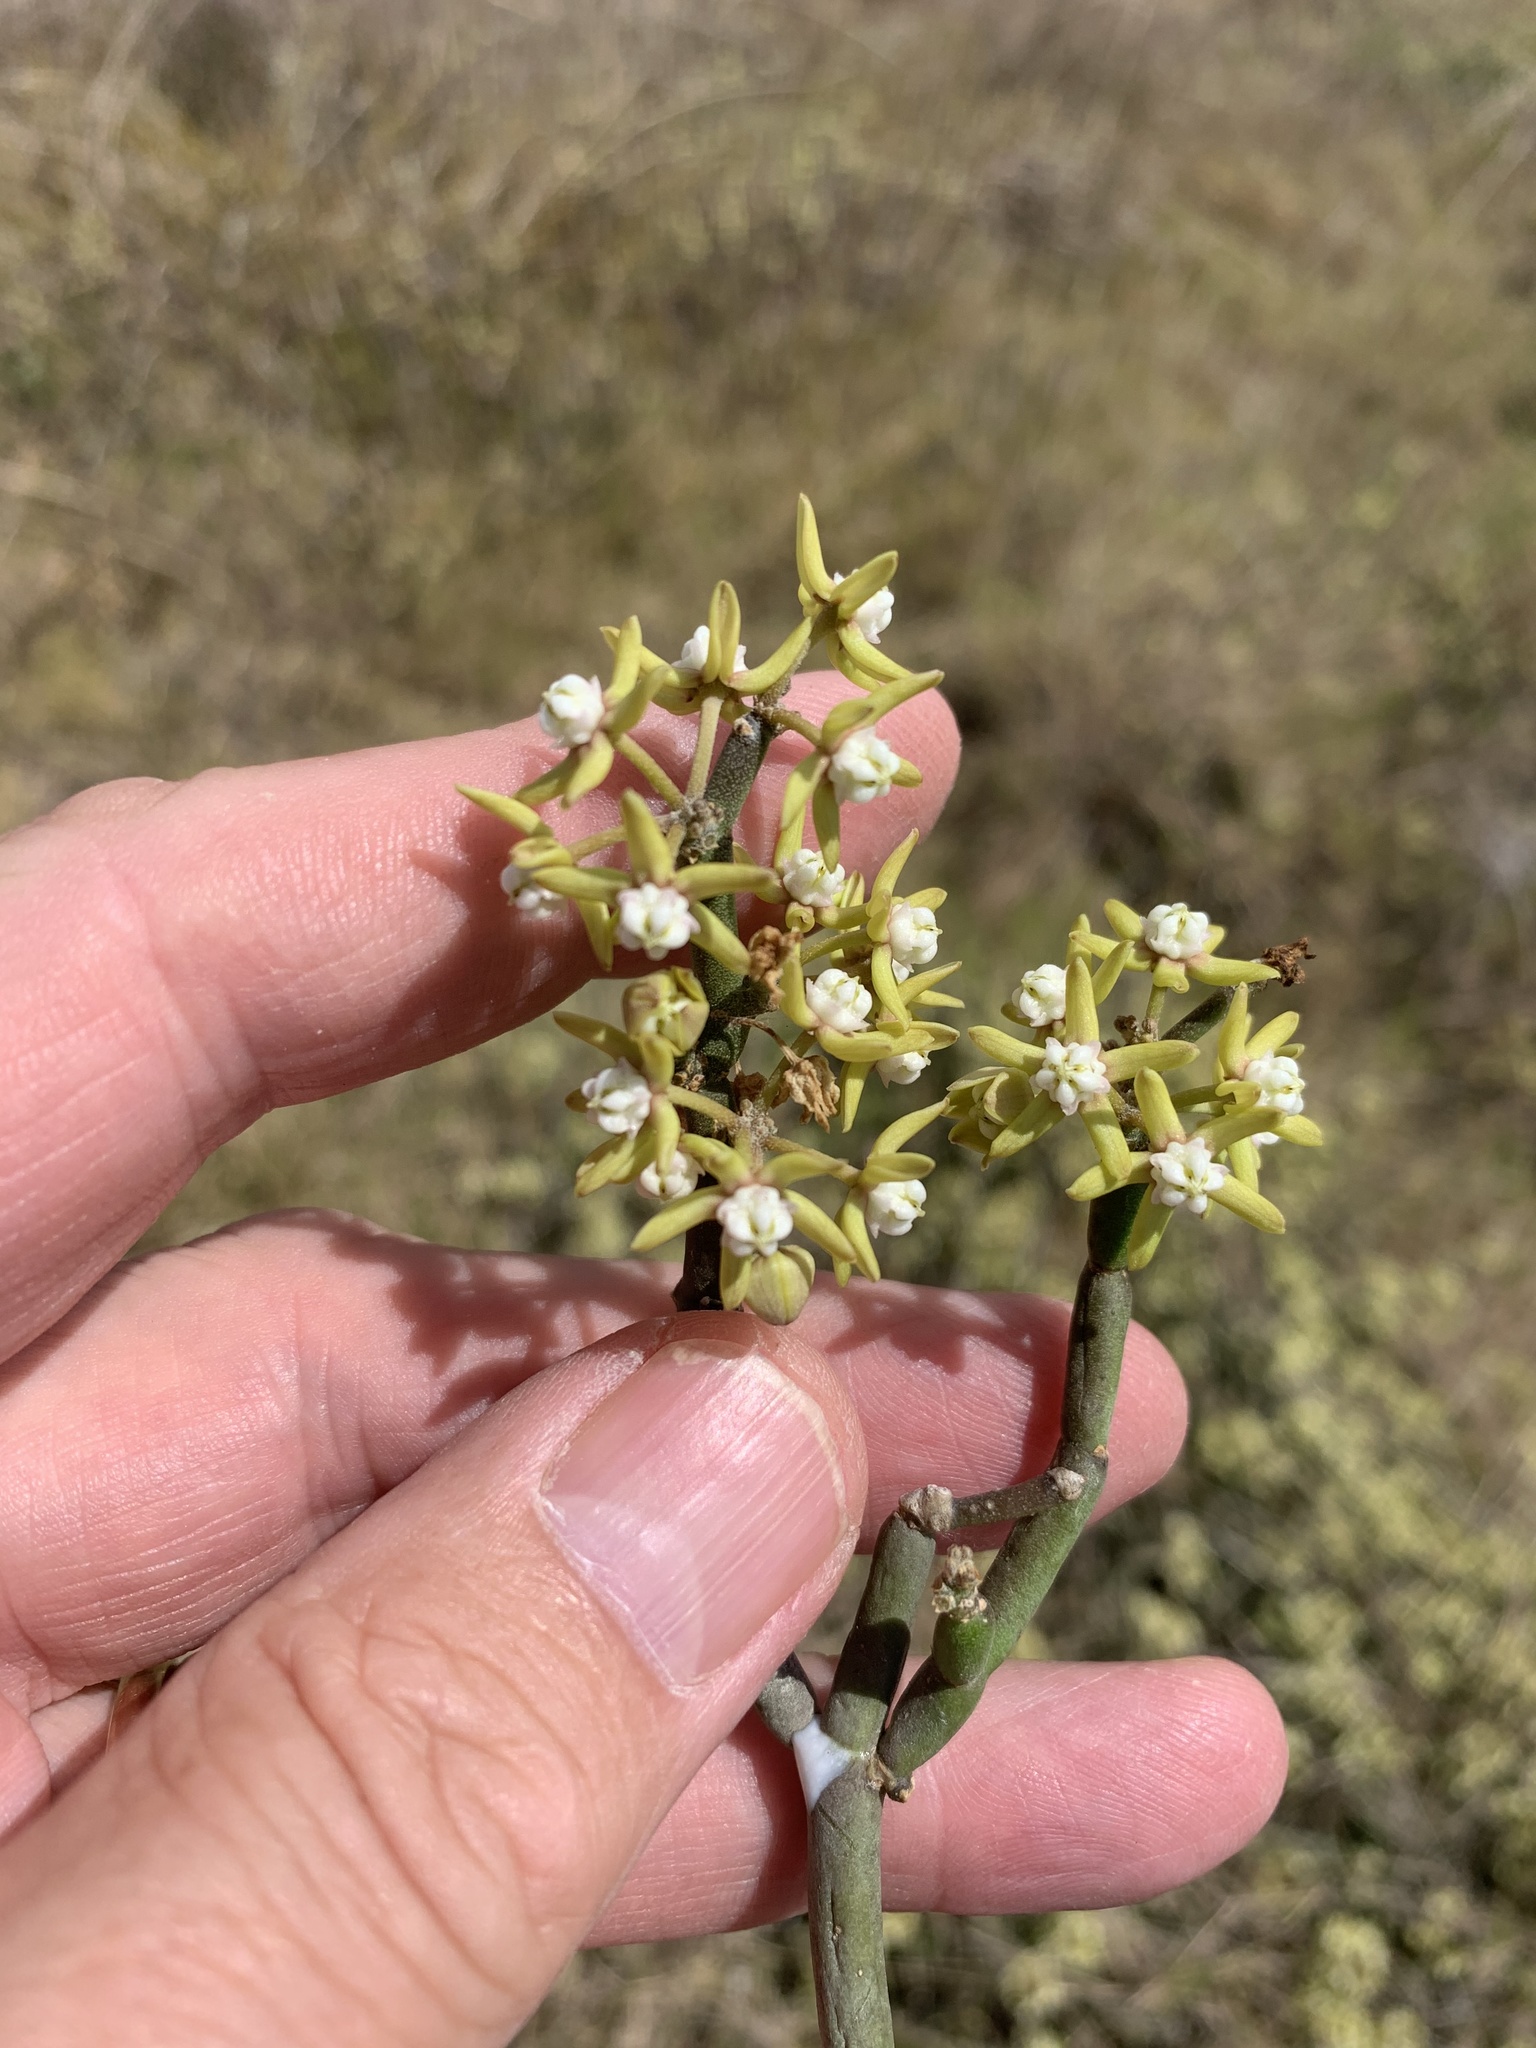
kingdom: Plantae
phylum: Tracheophyta
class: Magnoliopsida
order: Gentianales
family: Apocynaceae
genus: Cynanchum
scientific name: Cynanchum viminale
